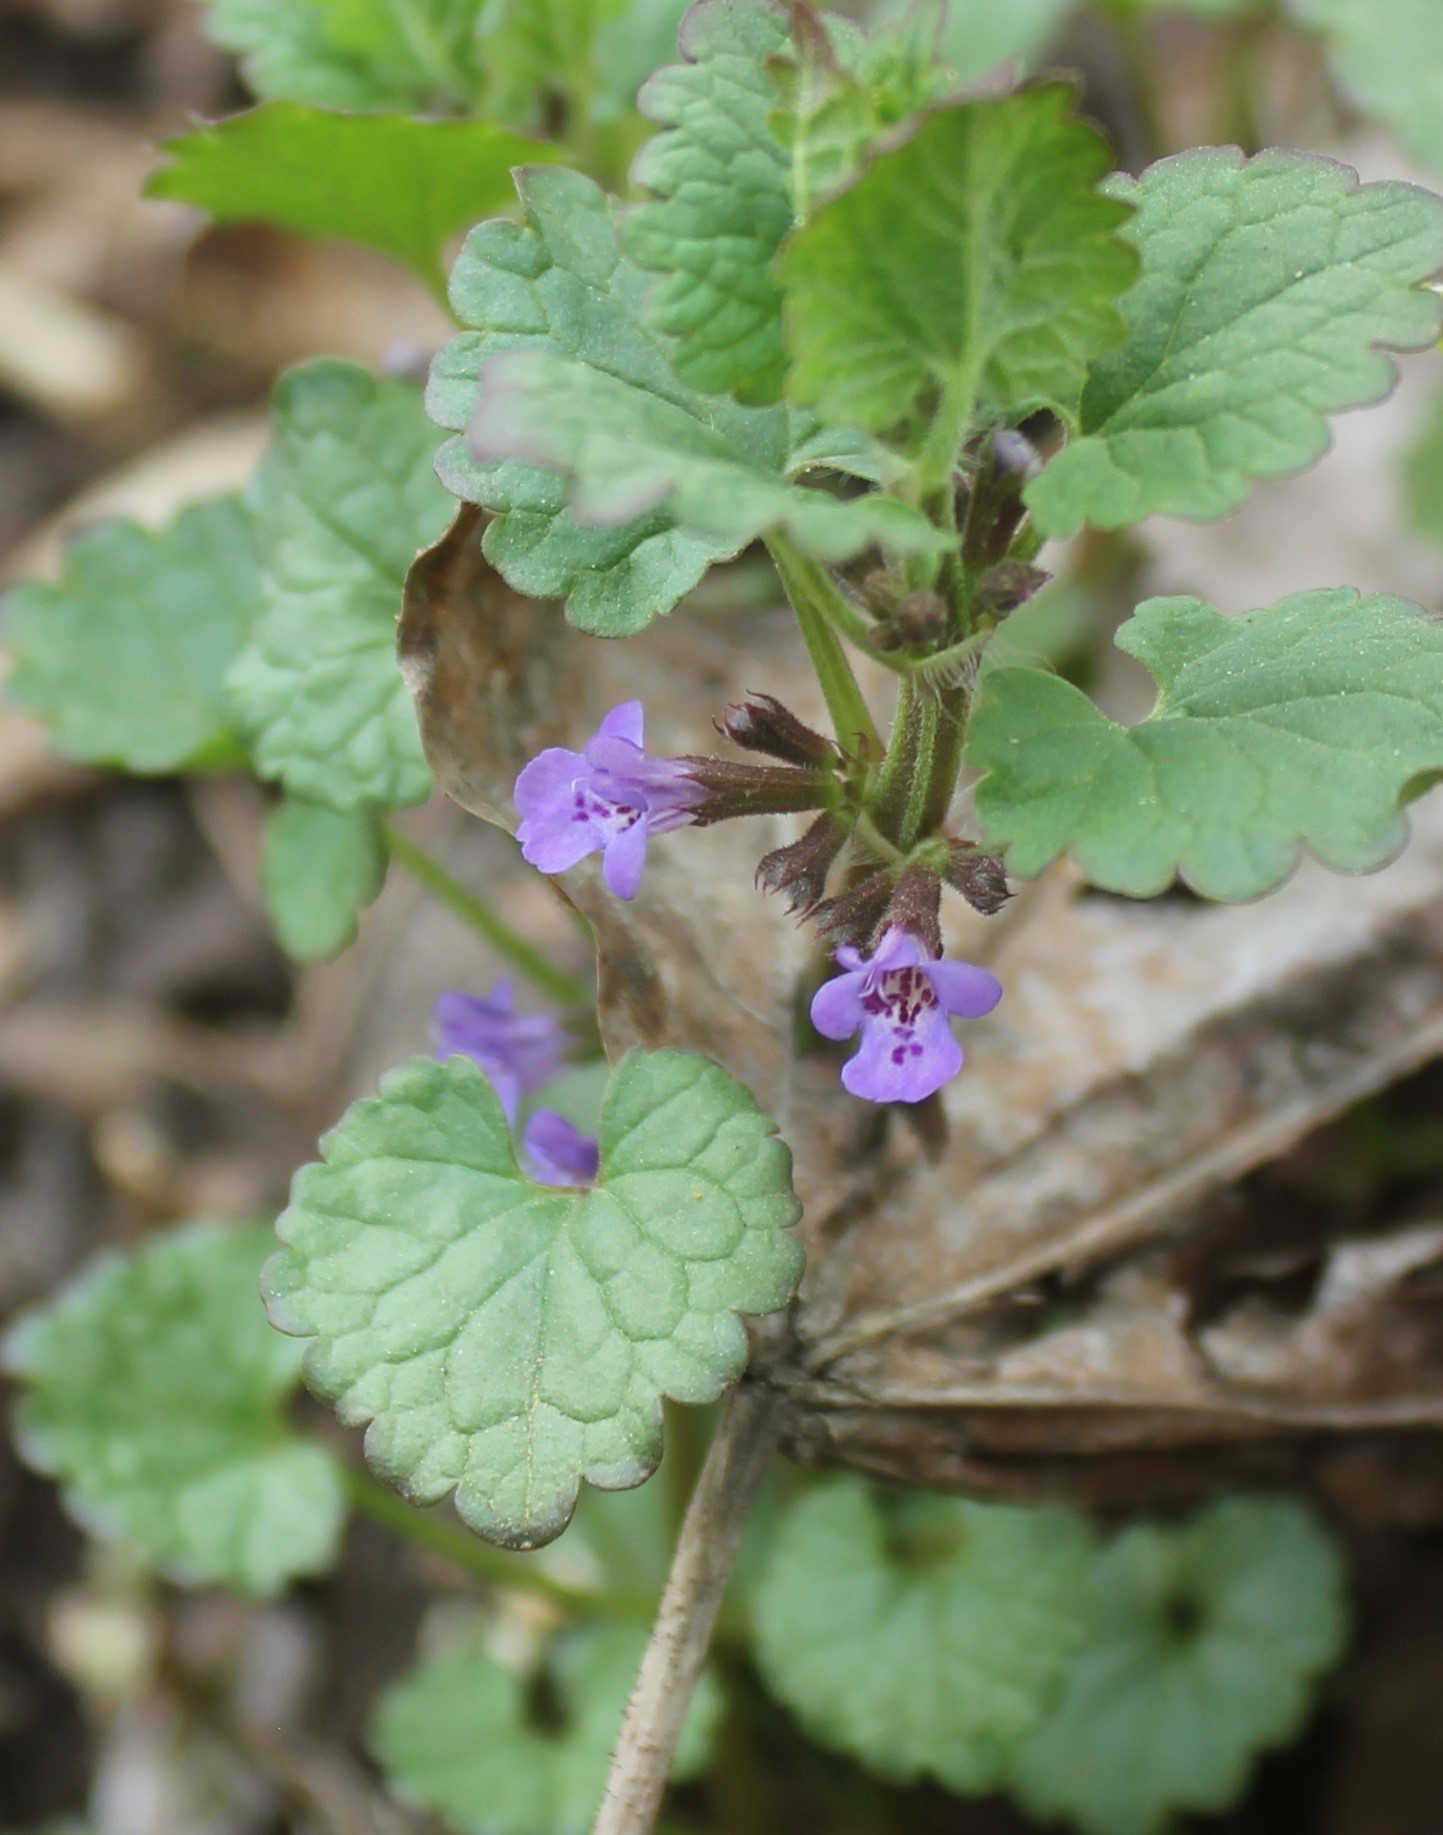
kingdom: Plantae
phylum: Tracheophyta
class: Magnoliopsida
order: Lamiales
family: Lamiaceae
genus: Glechoma
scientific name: Glechoma hederacea
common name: Ground ivy
